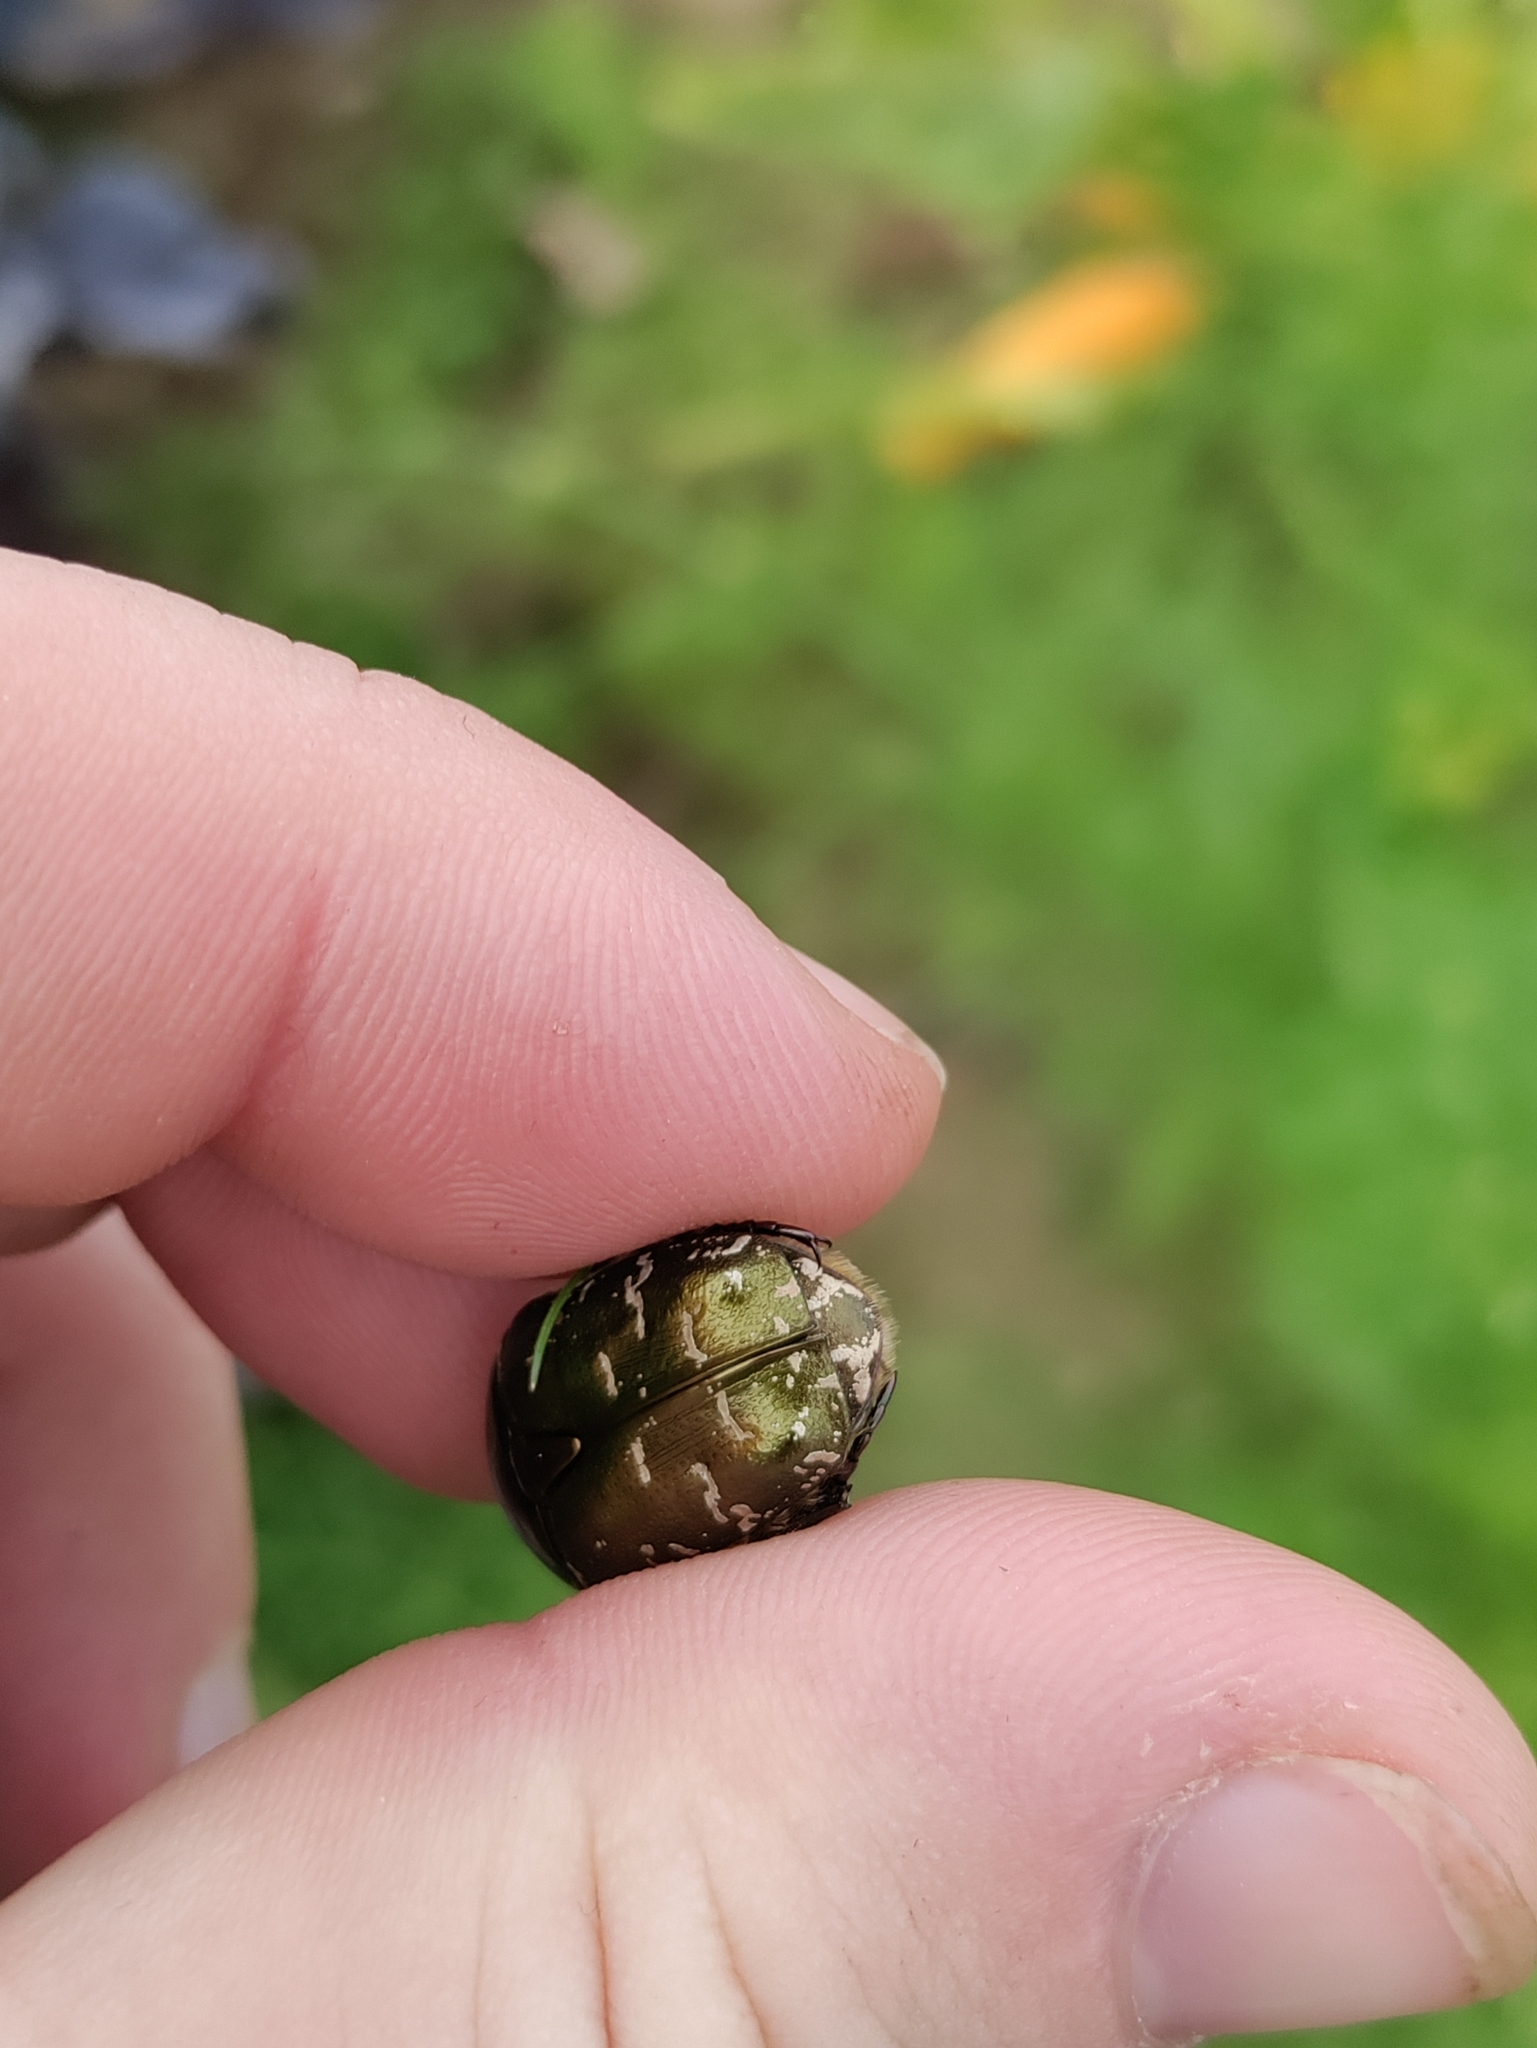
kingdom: Animalia
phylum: Arthropoda
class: Insecta
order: Coleoptera
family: Scarabaeidae
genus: Protaetia
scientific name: Protaetia cuprea
